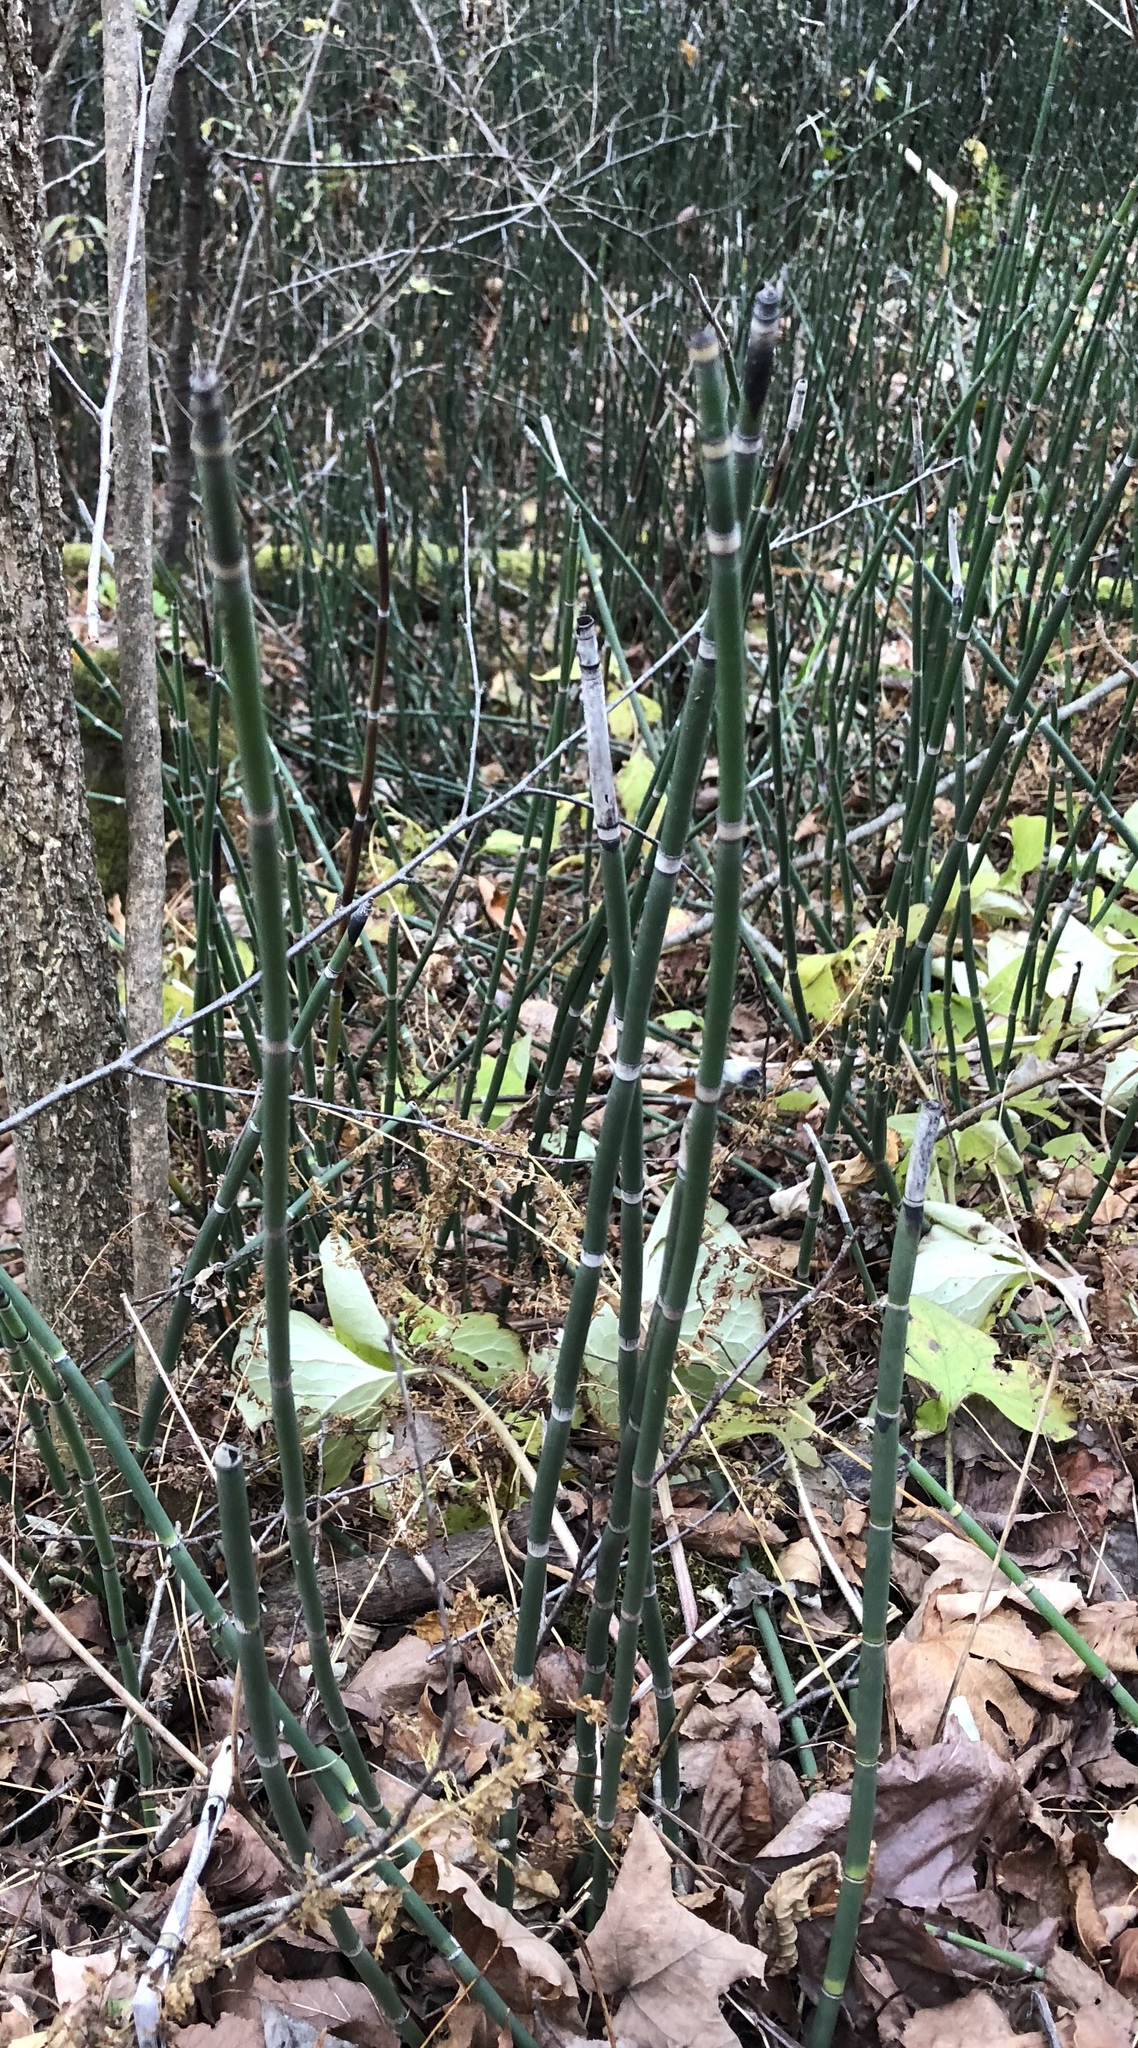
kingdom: Plantae
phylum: Tracheophyta
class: Polypodiopsida
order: Equisetales
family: Equisetaceae
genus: Equisetum
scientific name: Equisetum hyemale
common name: Rough horsetail
